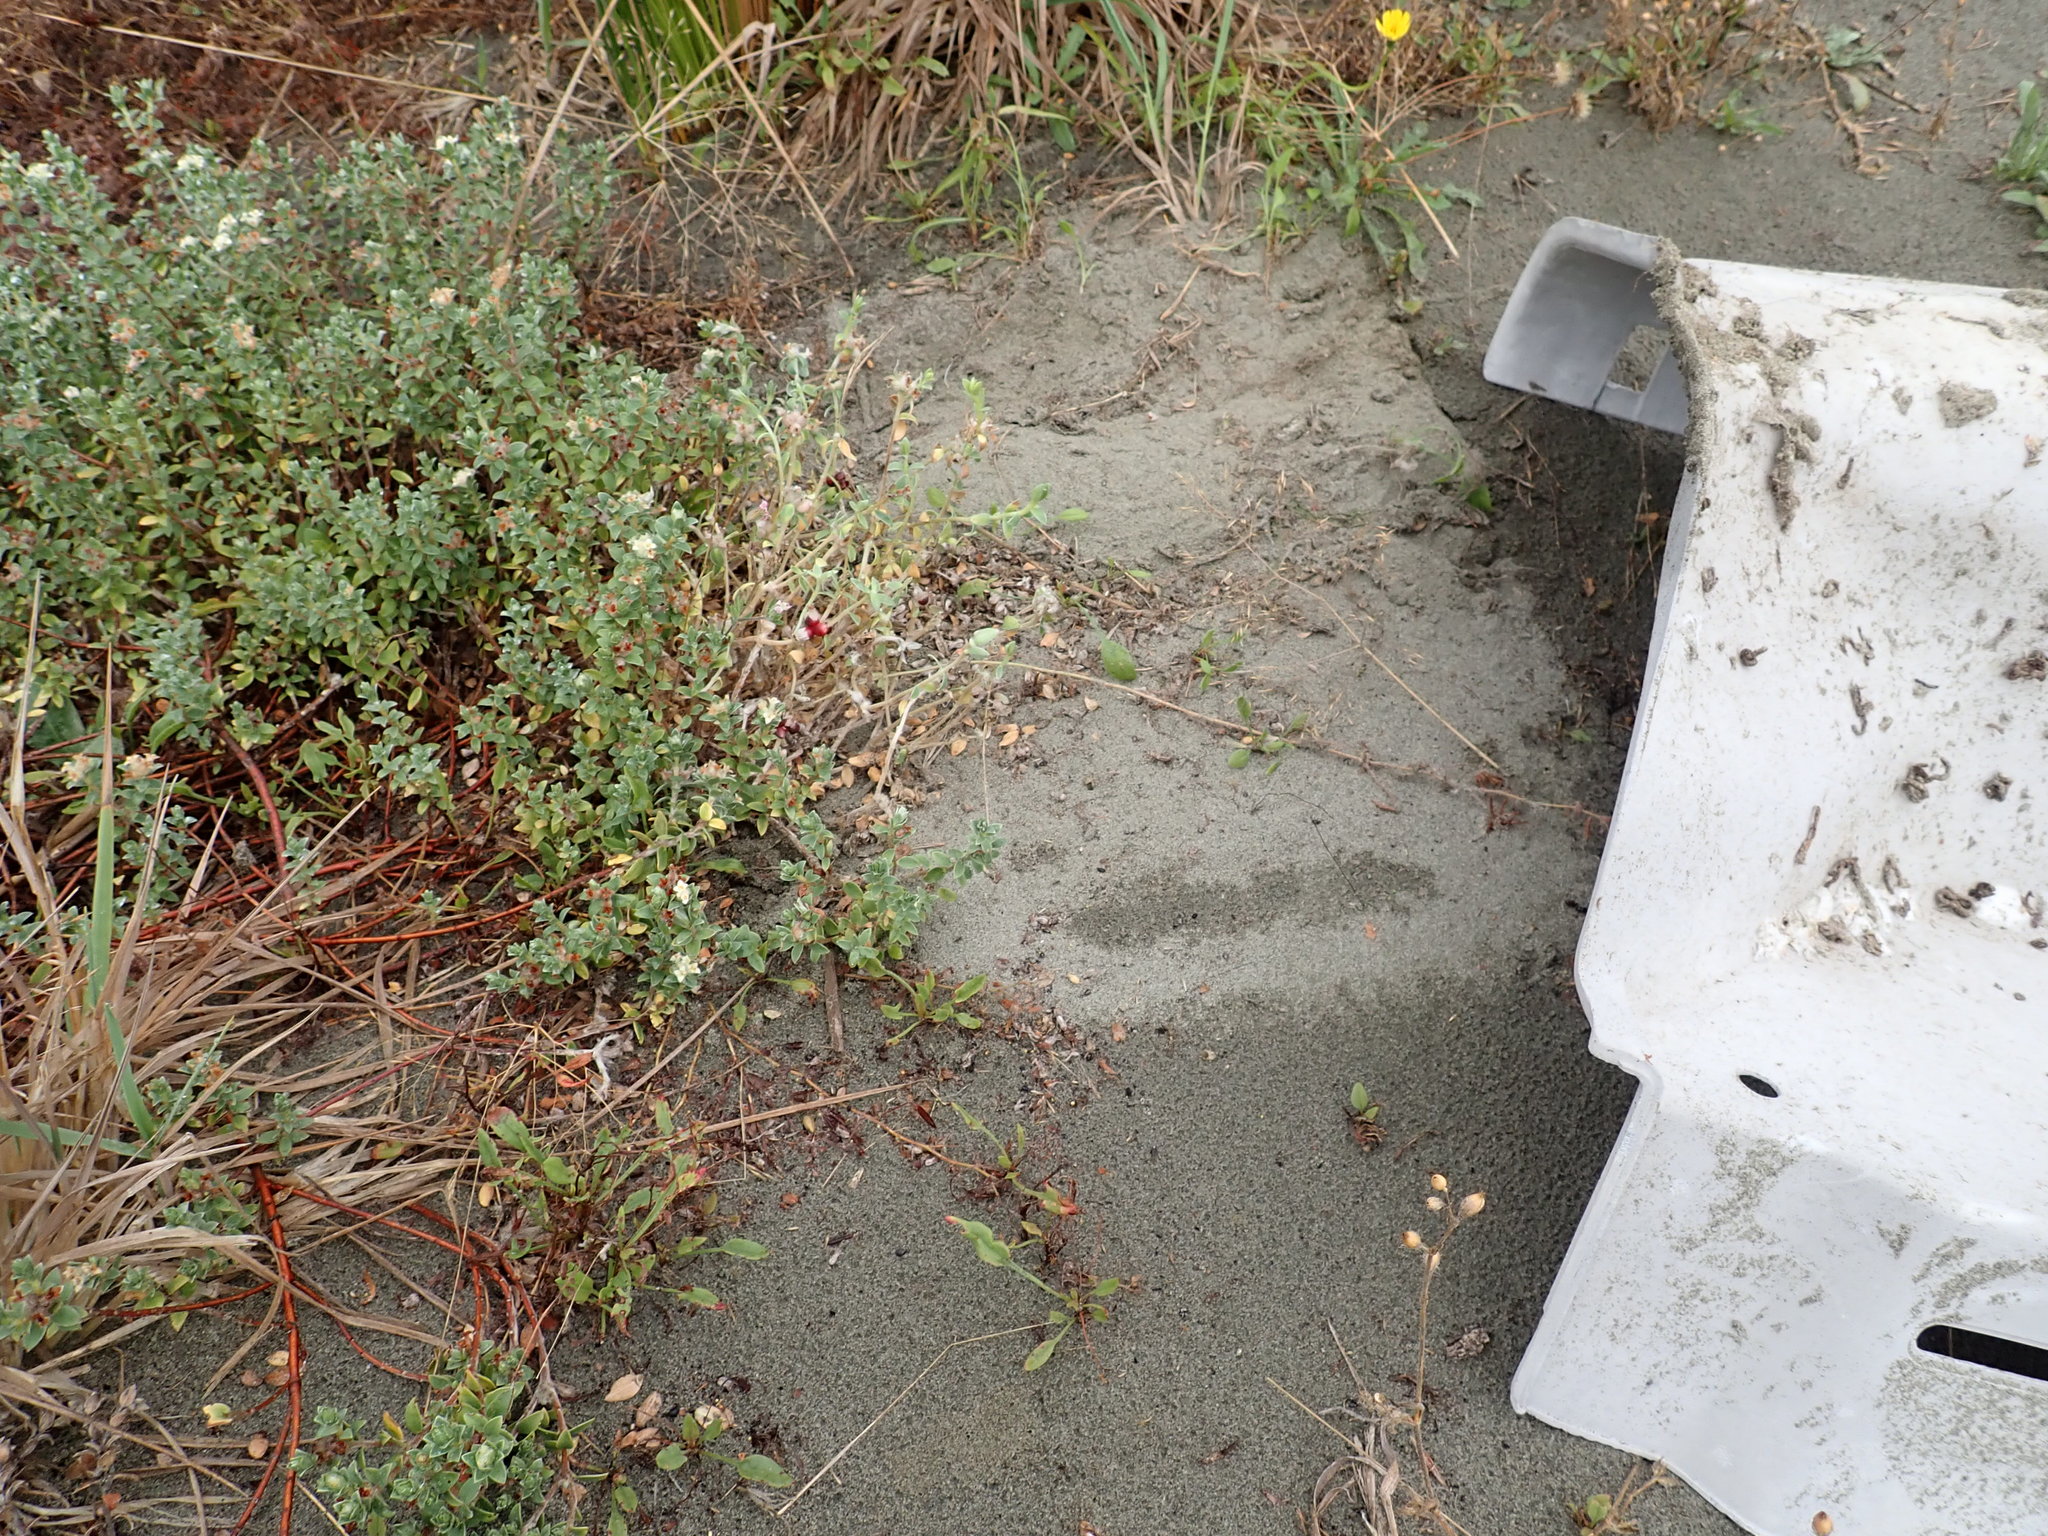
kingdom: Plantae
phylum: Tracheophyta
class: Magnoliopsida
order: Malvales
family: Thymelaeaceae
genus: Pimelea
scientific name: Pimelea villosa
